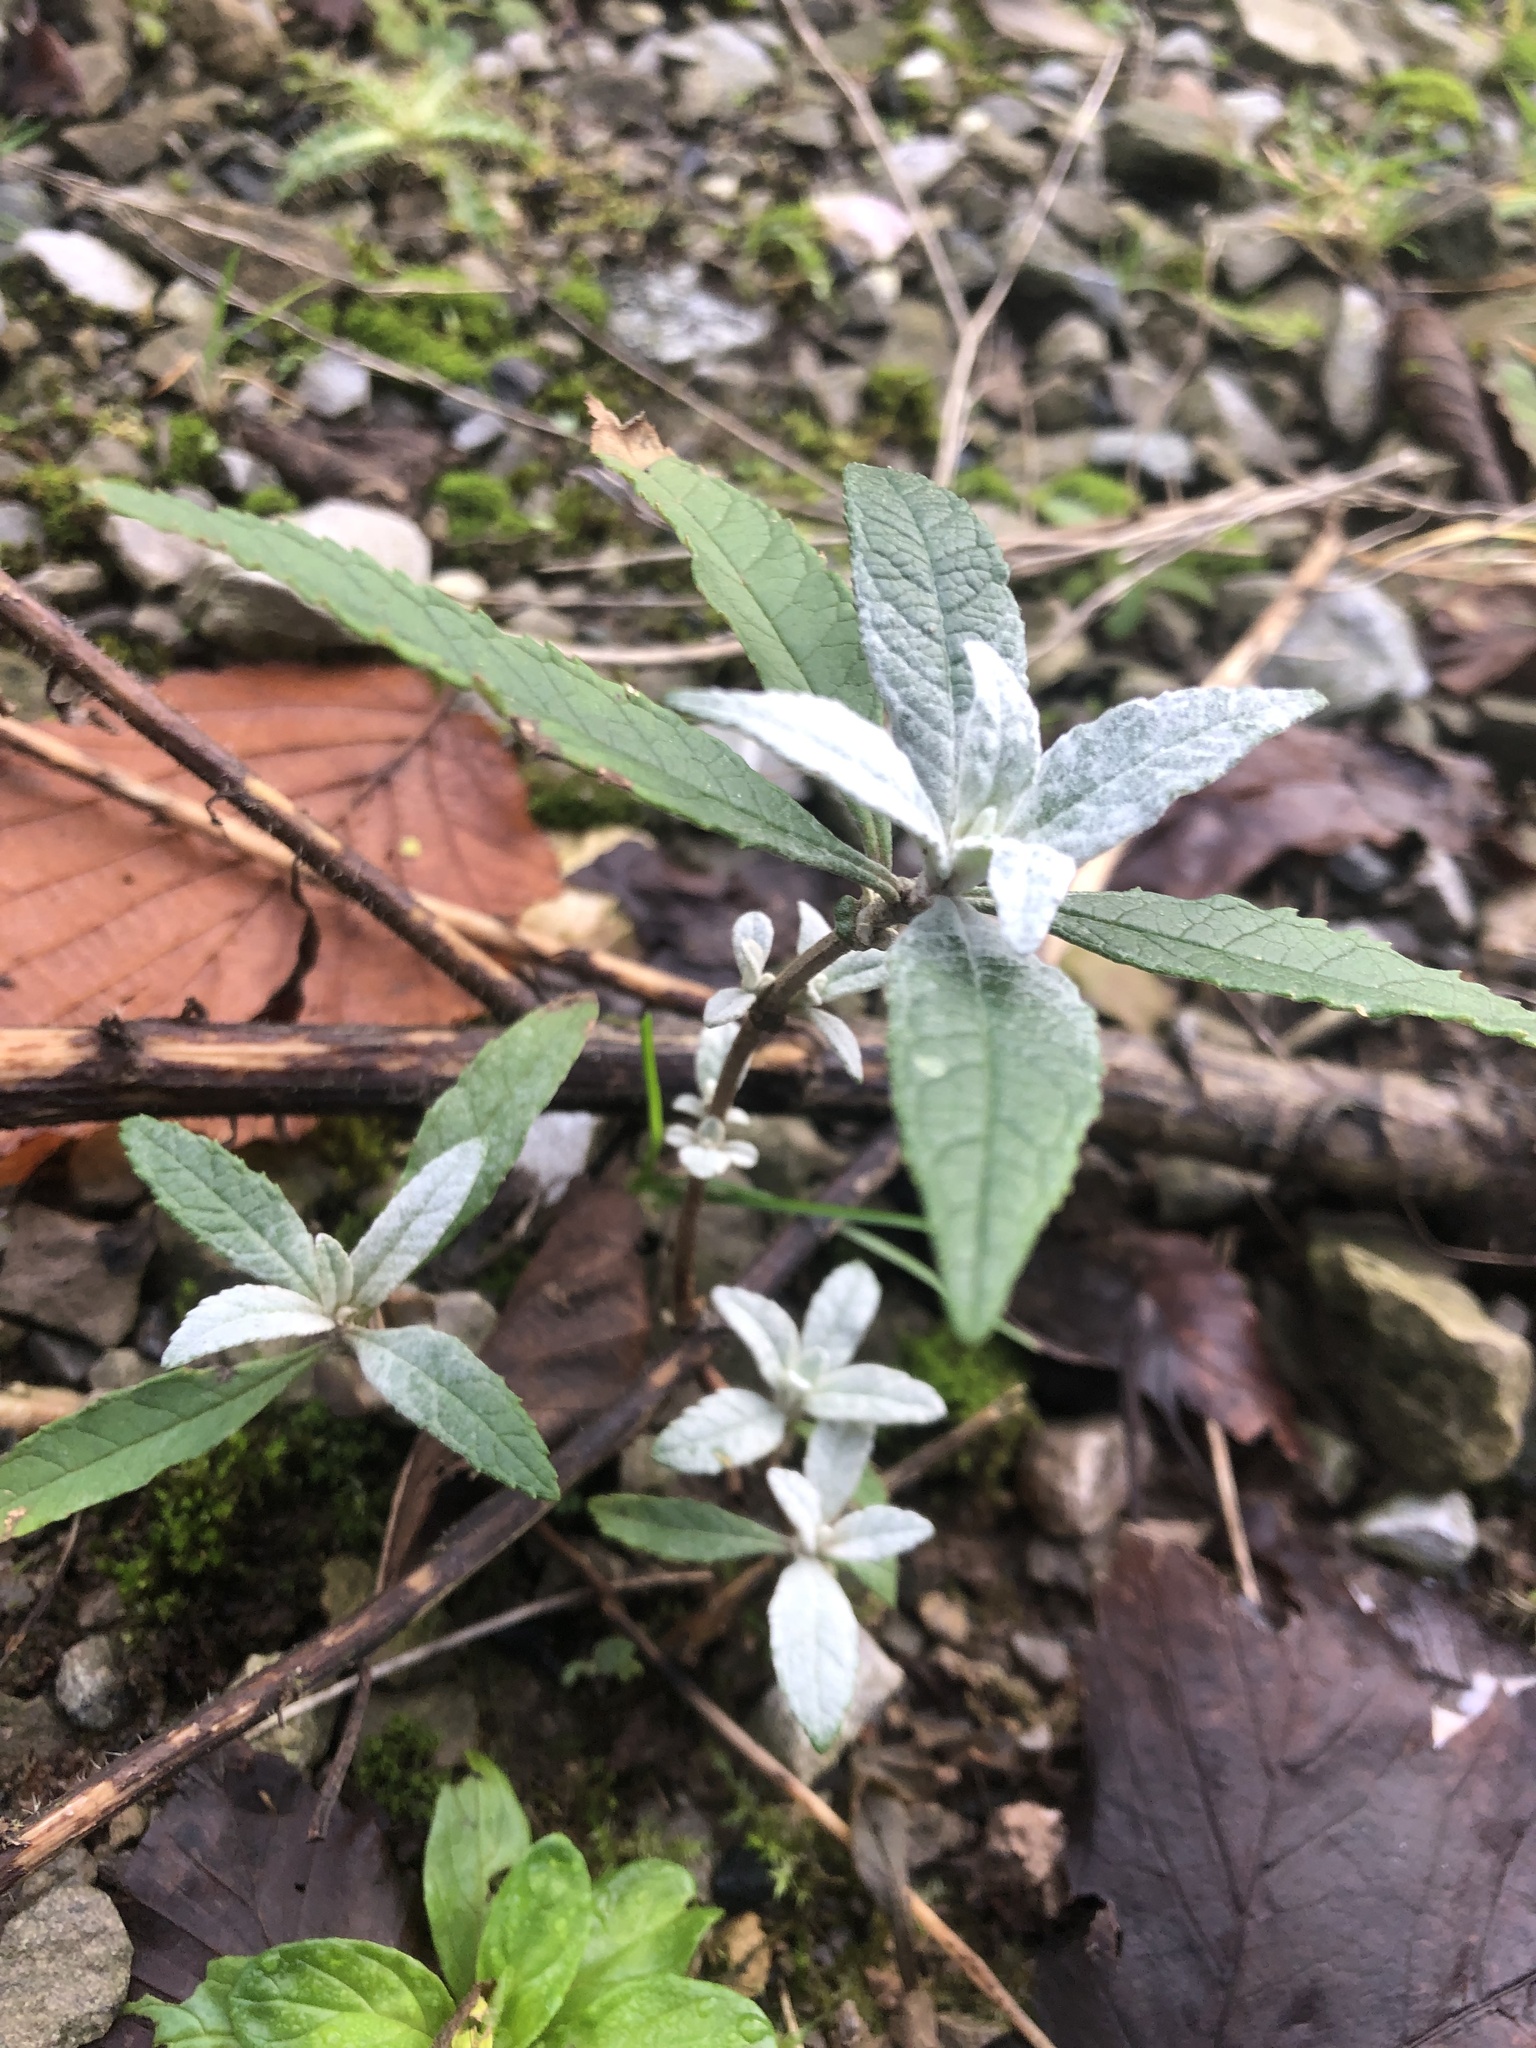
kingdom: Plantae
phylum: Tracheophyta
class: Magnoliopsida
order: Lamiales
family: Scrophulariaceae
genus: Buddleja
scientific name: Buddleja davidii
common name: Butterfly-bush
